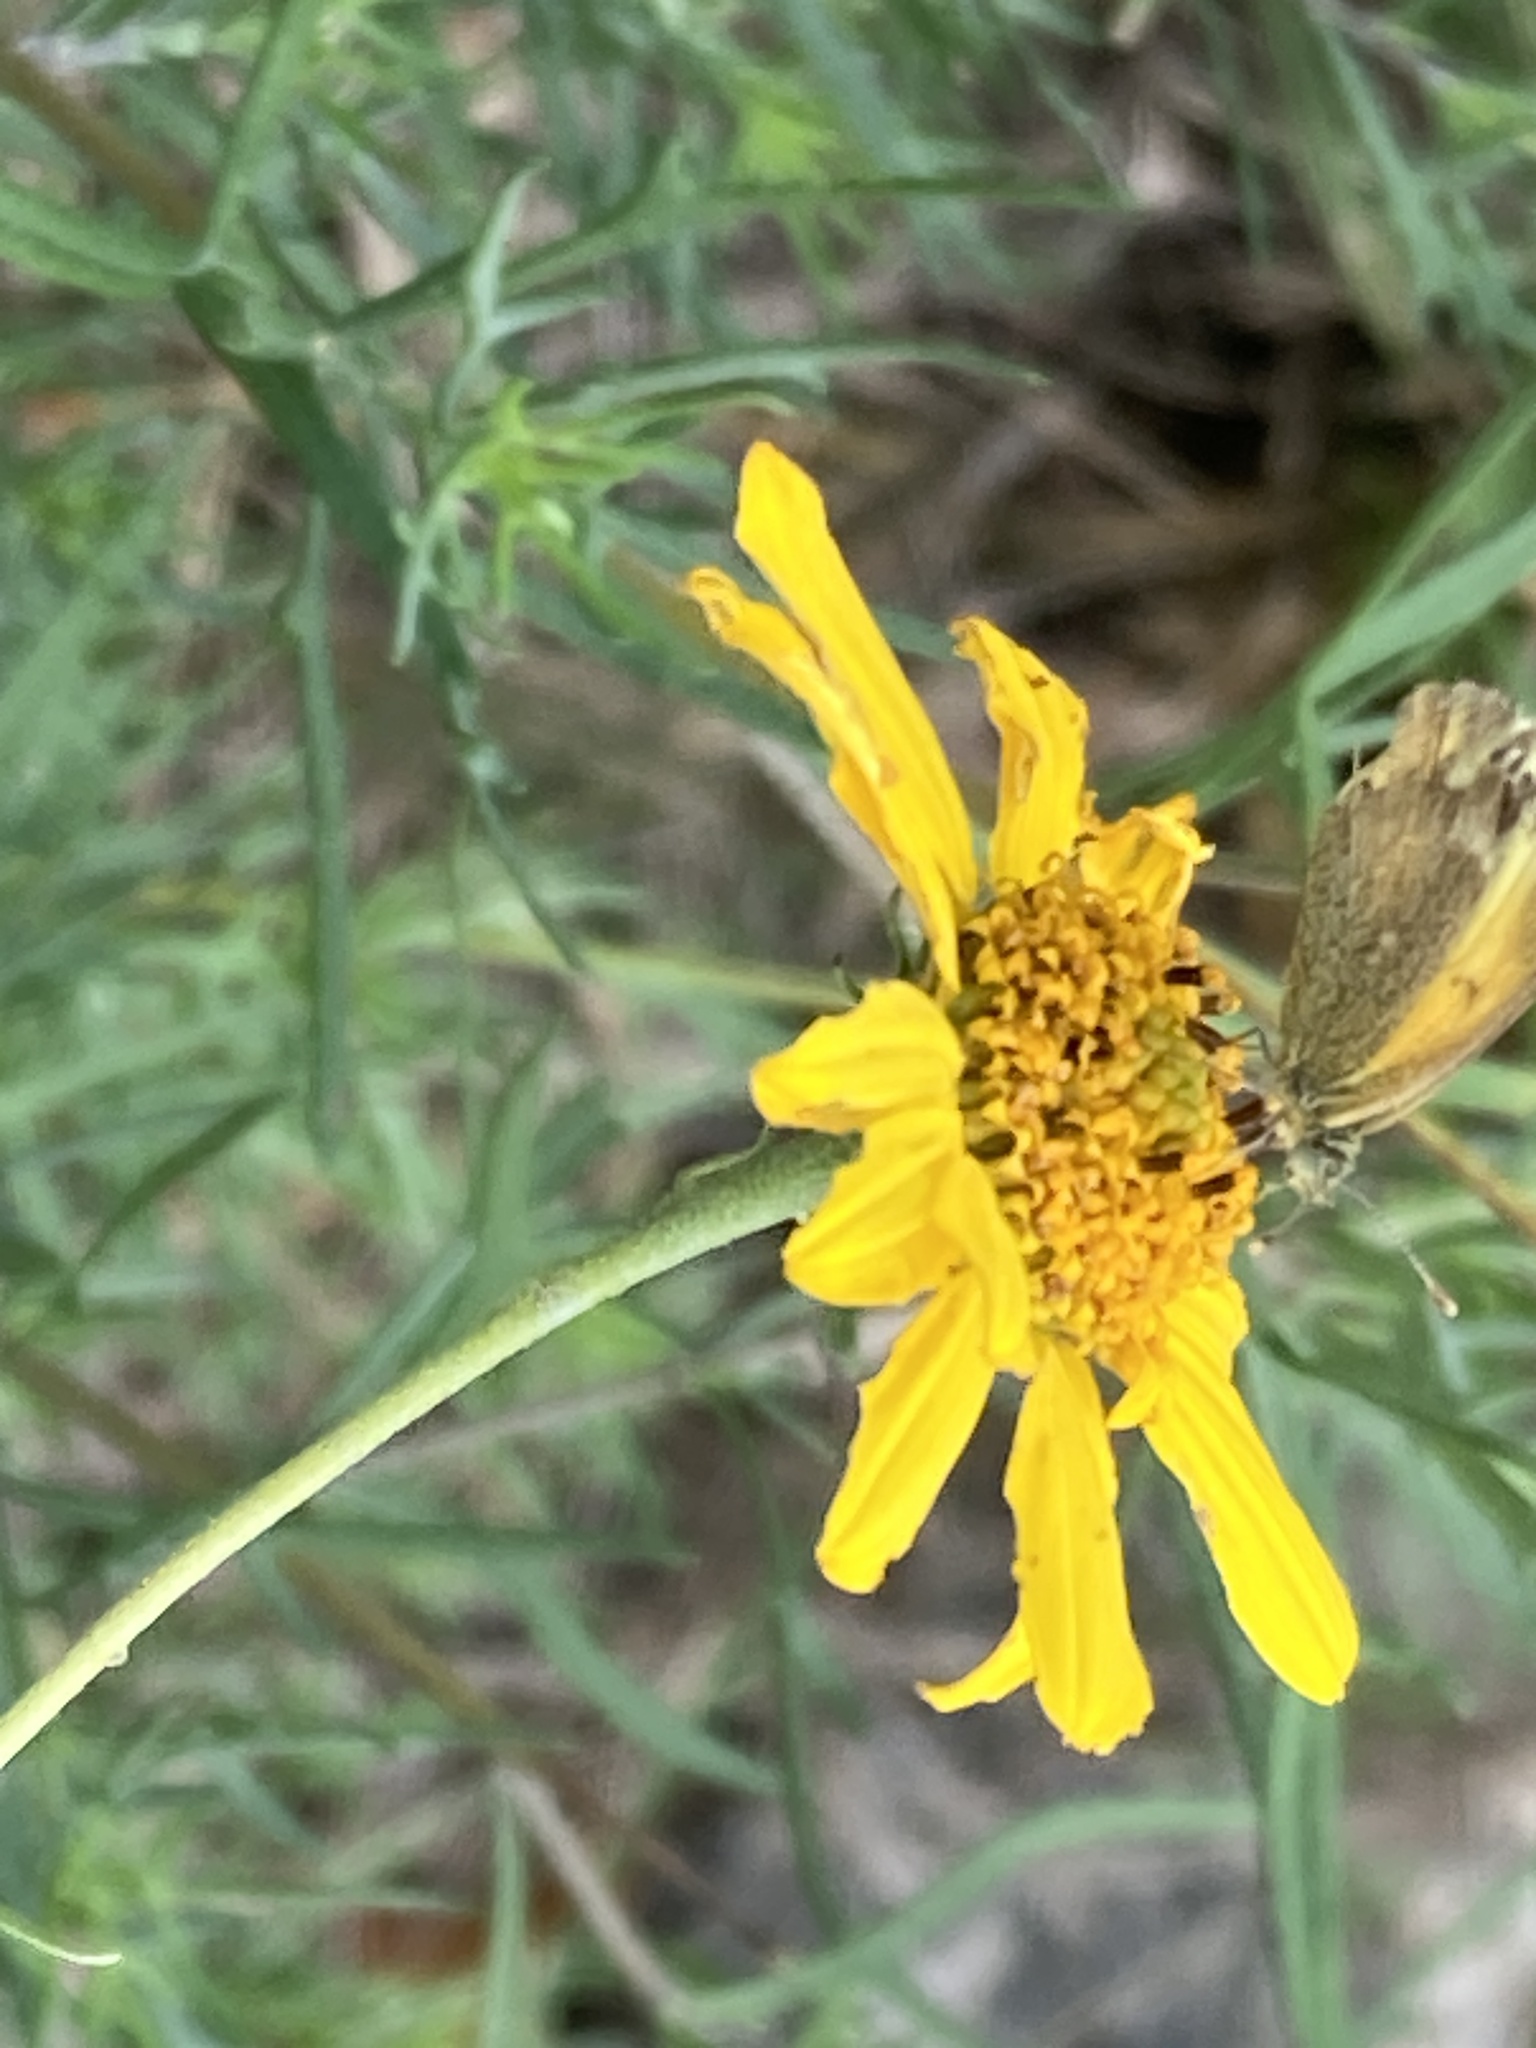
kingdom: Animalia
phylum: Arthropoda
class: Insecta
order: Lepidoptera
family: Pieridae
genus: Nathalis
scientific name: Nathalis iole
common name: Dainty sulphur
